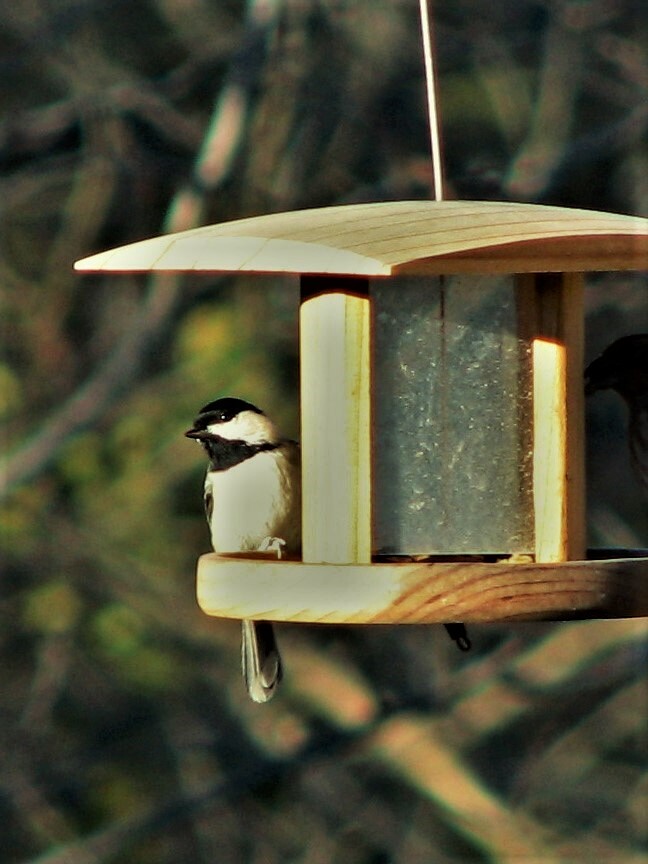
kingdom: Animalia
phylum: Chordata
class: Aves
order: Passeriformes
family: Paridae
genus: Poecile
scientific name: Poecile carolinensis
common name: Carolina chickadee
